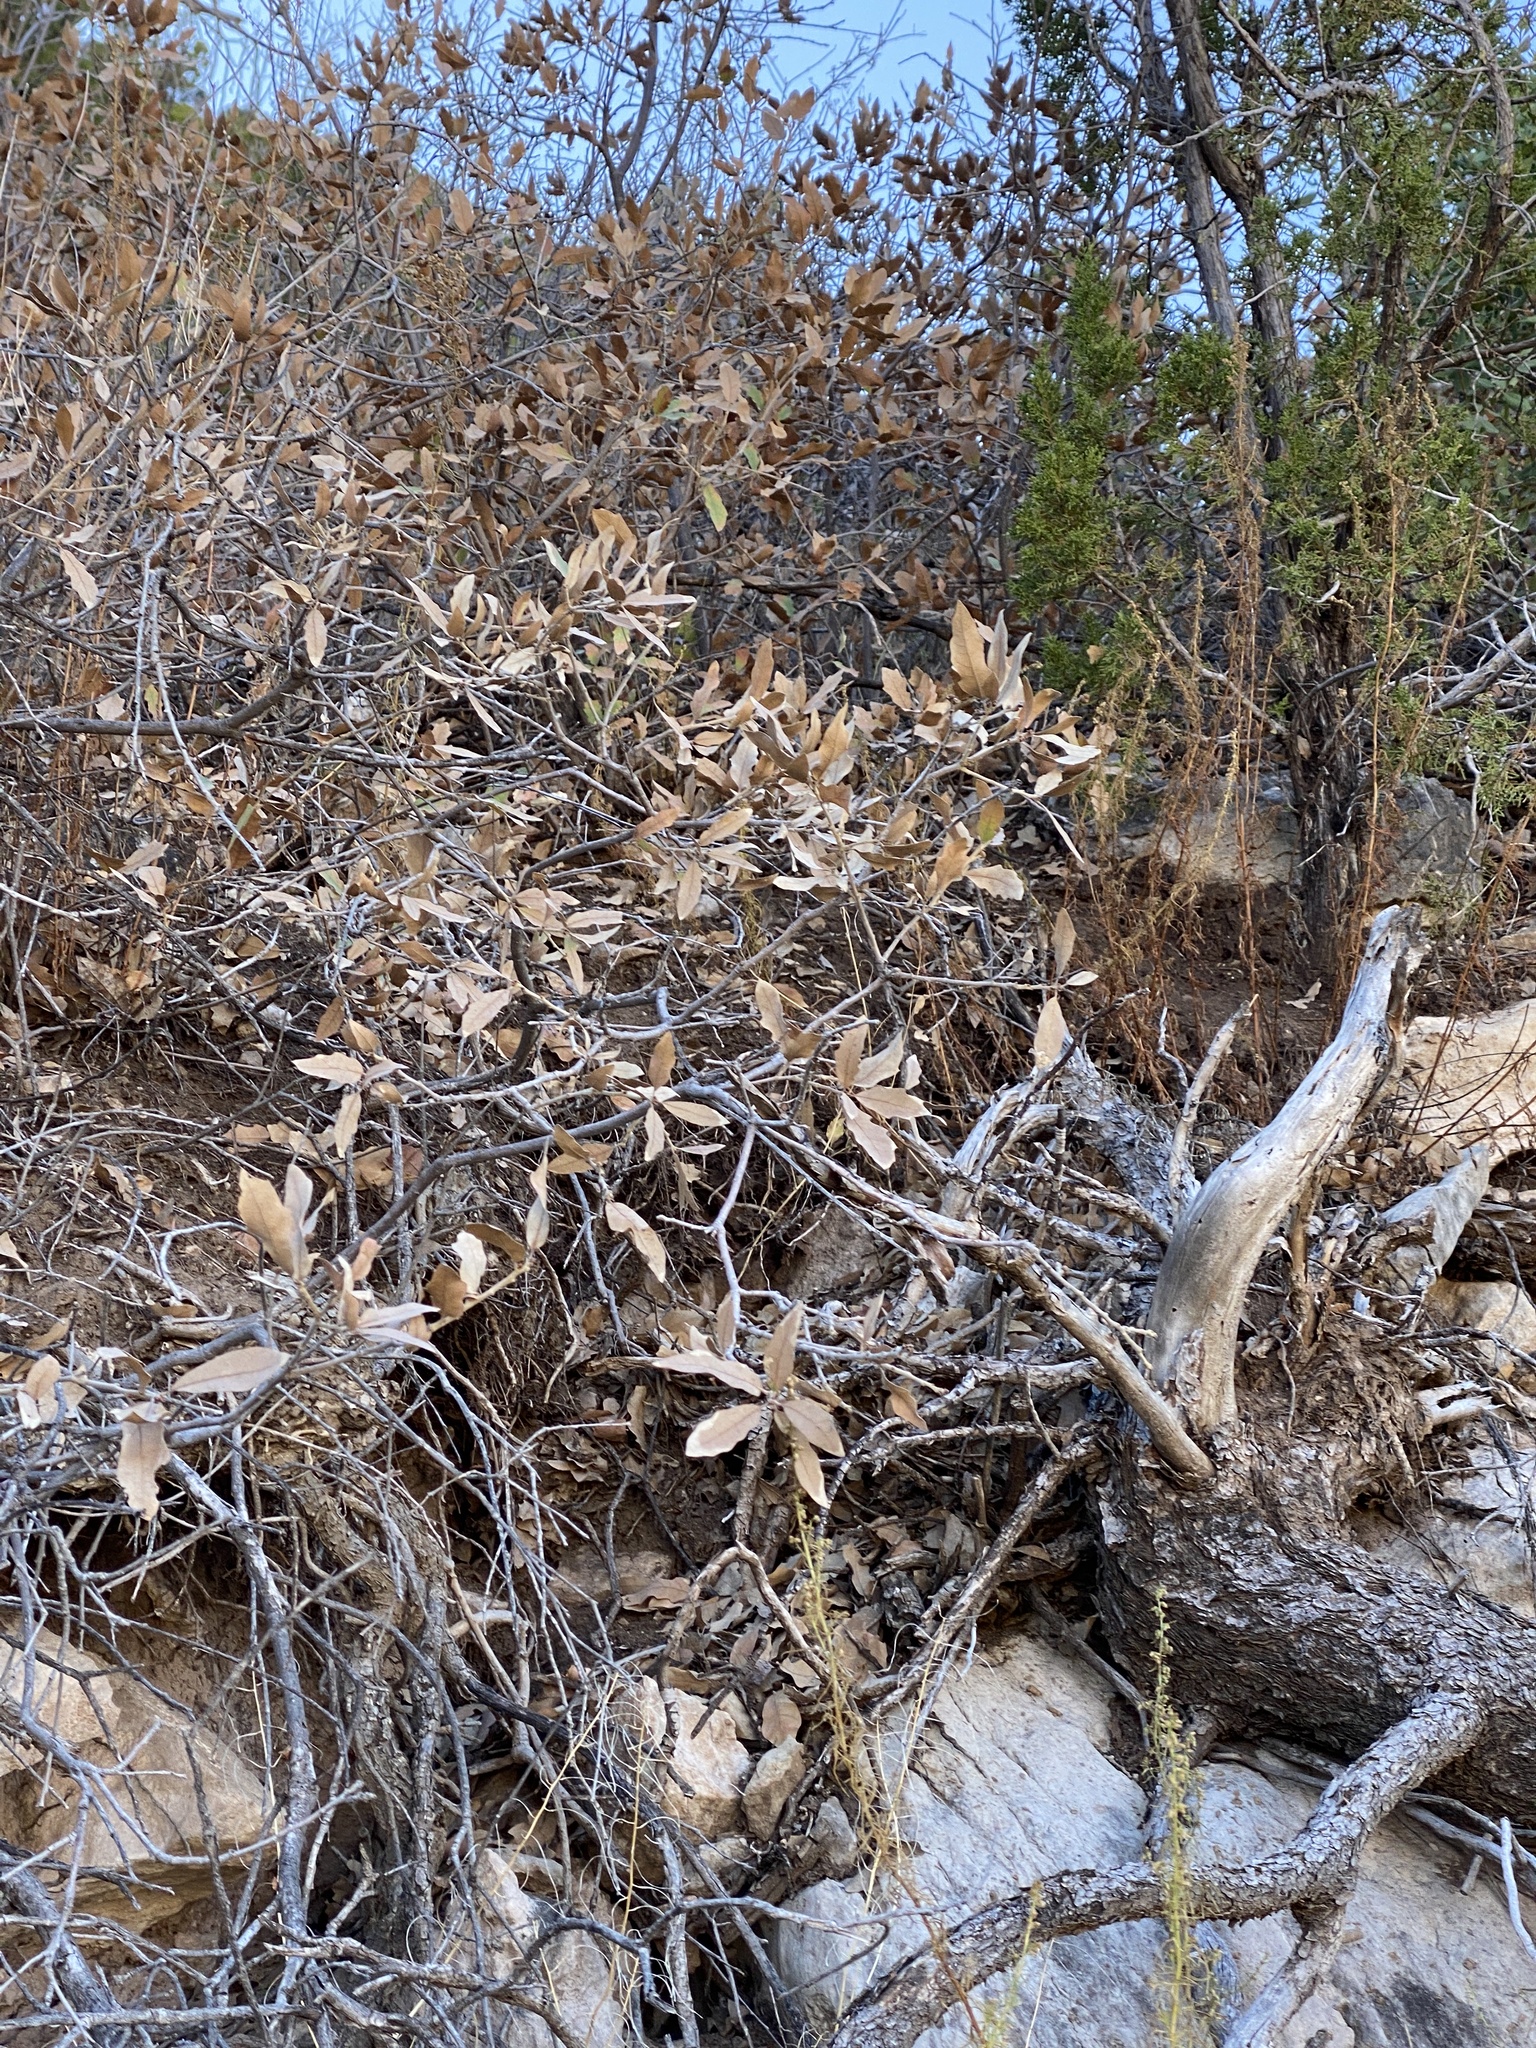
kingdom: Plantae
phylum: Tracheophyta
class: Magnoliopsida
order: Fagales
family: Fagaceae
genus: Quercus
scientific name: Quercus undulata
